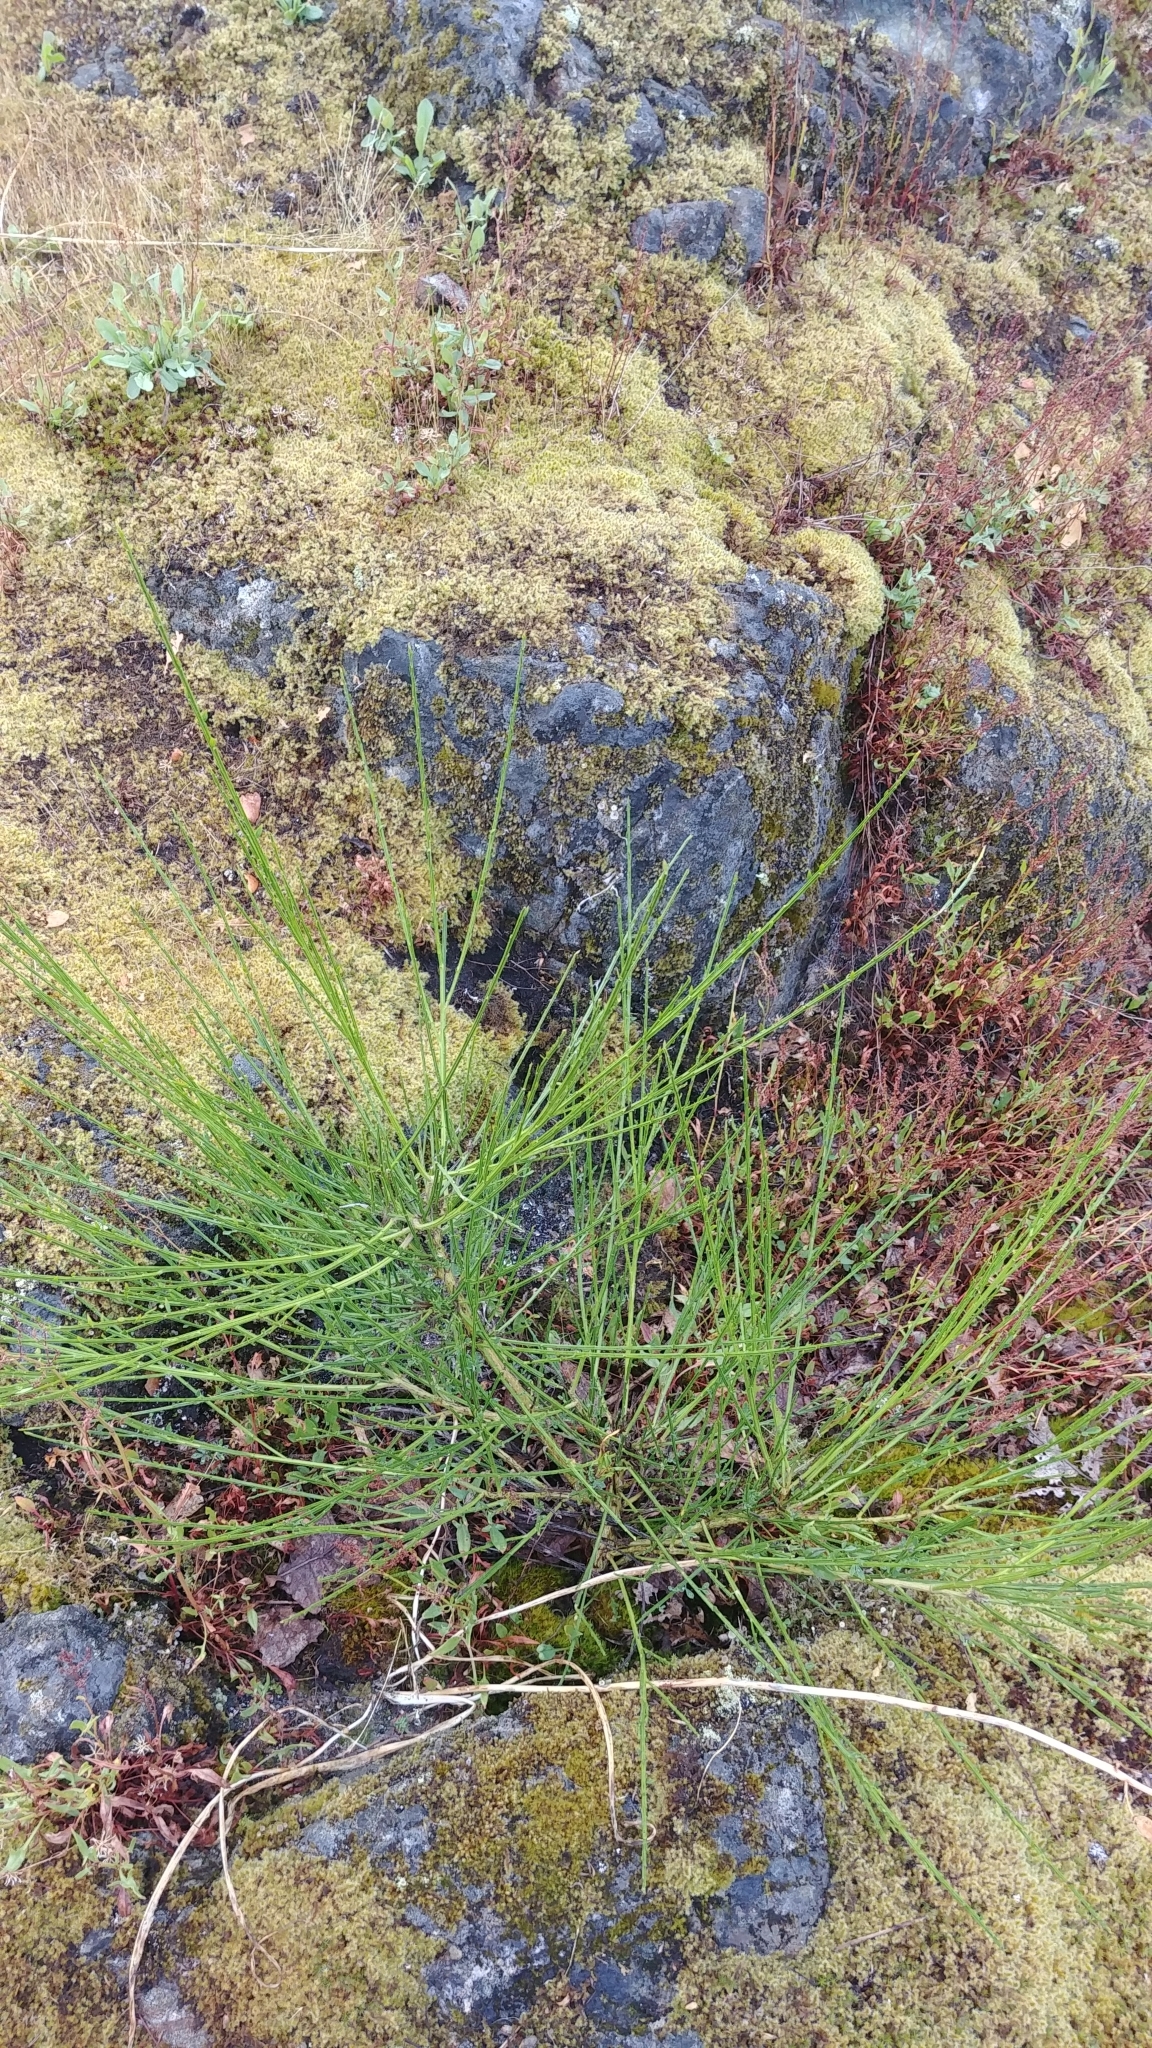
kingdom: Plantae
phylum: Tracheophyta
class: Magnoliopsida
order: Fabales
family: Fabaceae
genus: Cytisus
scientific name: Cytisus scoparius
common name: Scotch broom
